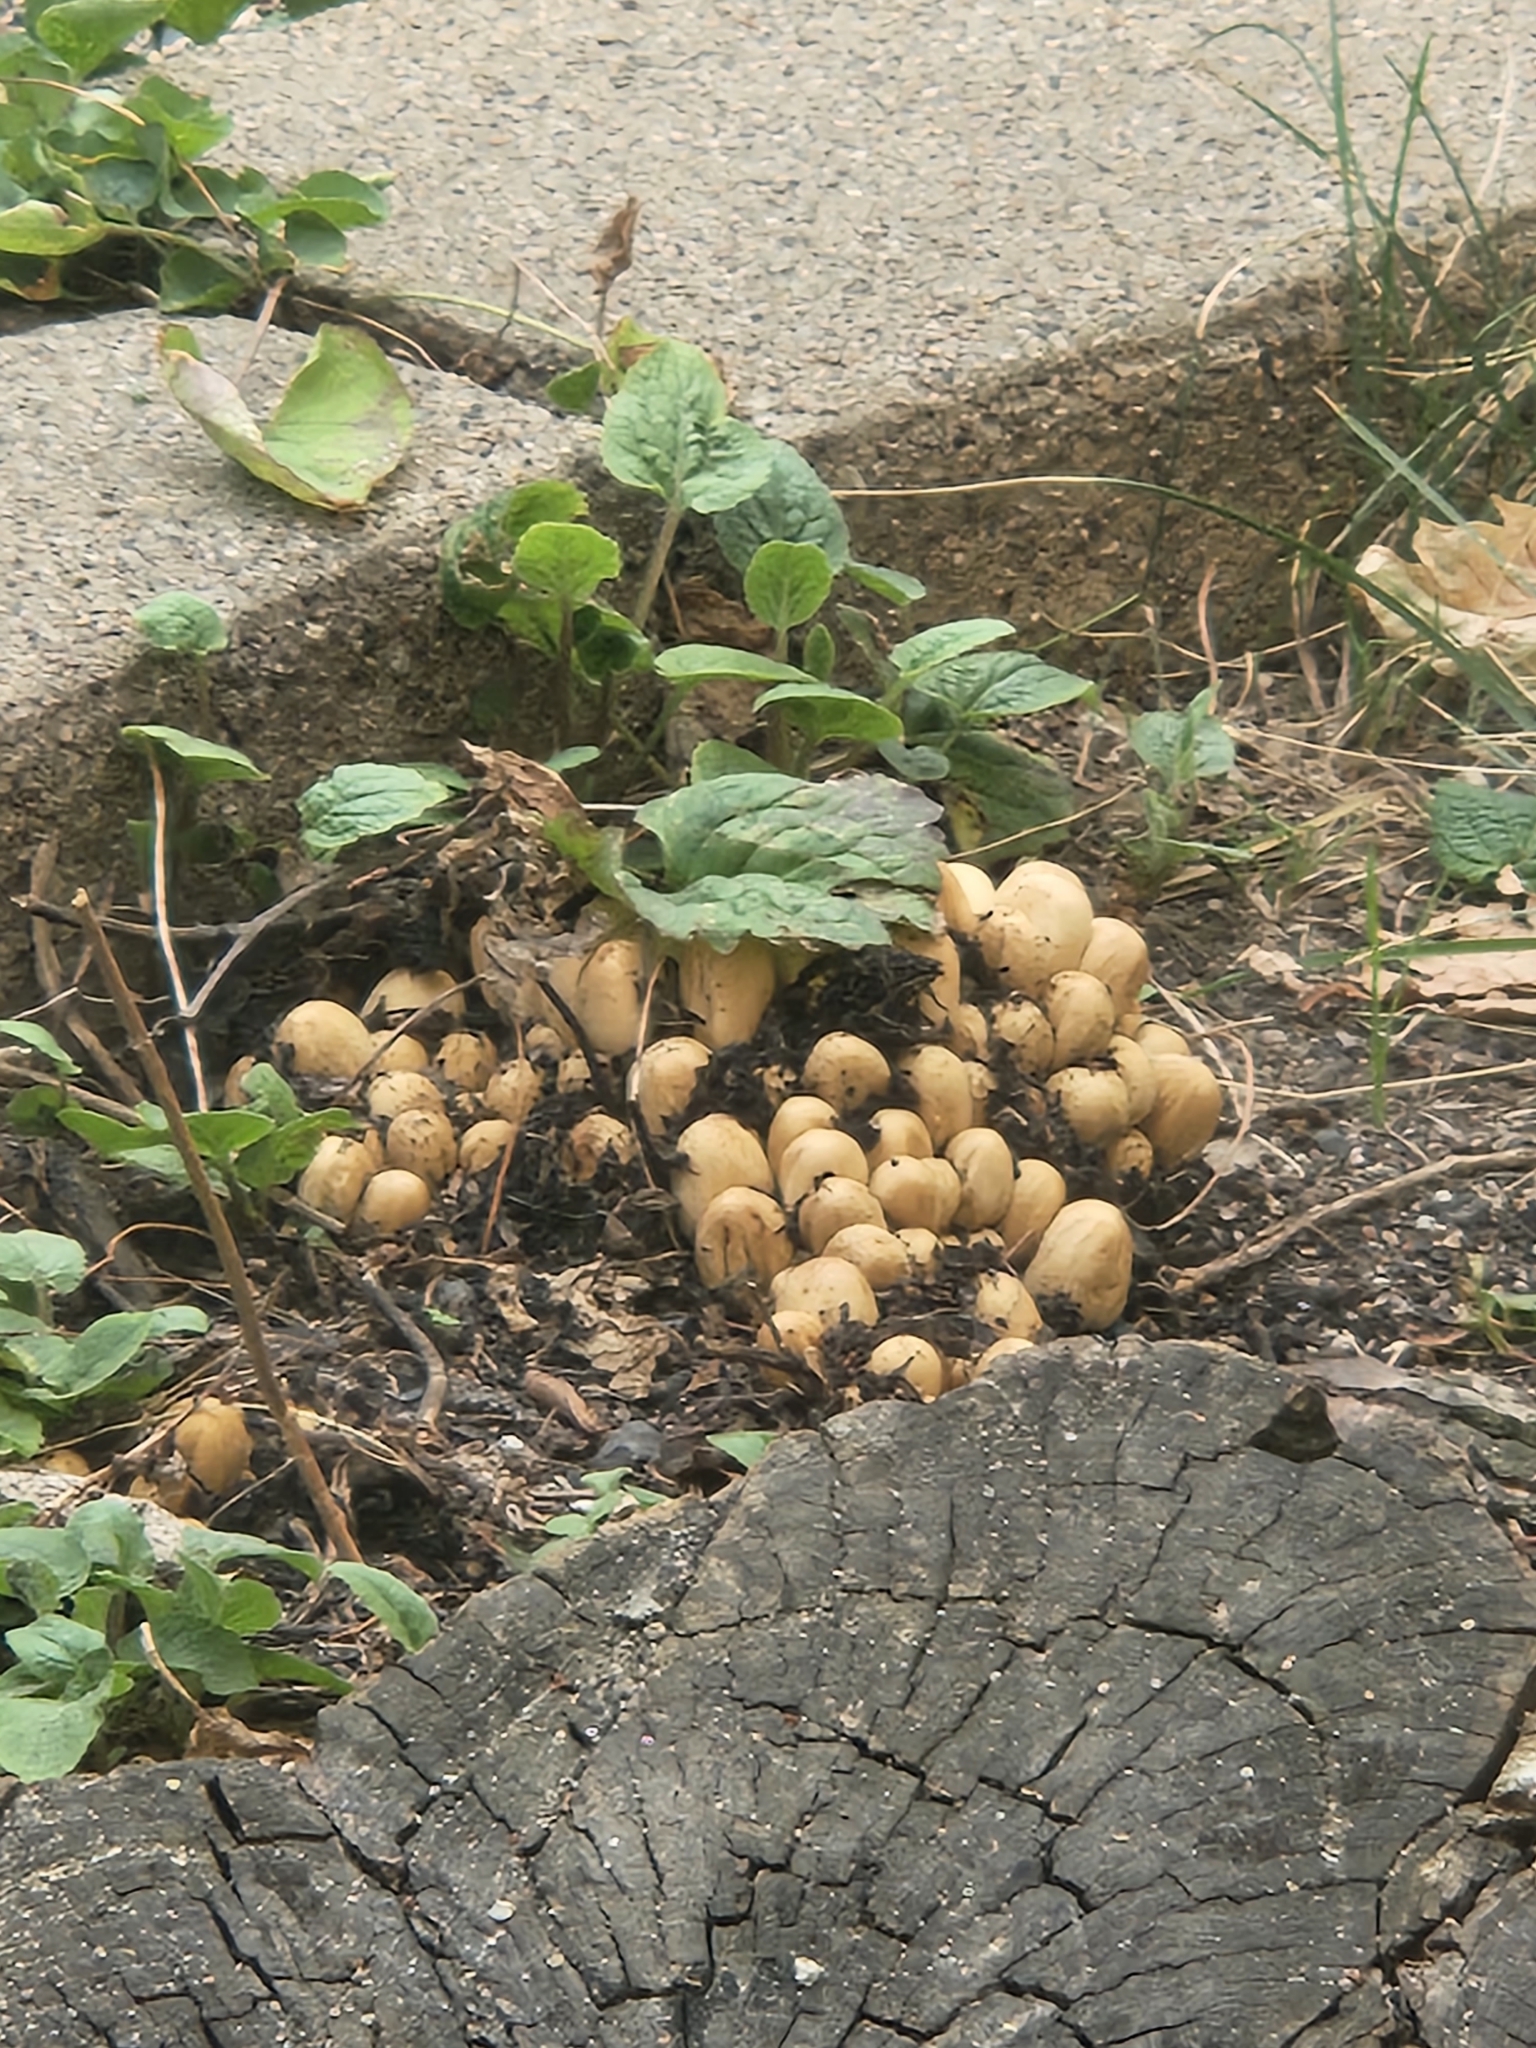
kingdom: Fungi
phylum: Basidiomycota
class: Agaricomycetes
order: Agaricales
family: Psathyrellaceae
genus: Coprinellus
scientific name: Coprinellus micaceus
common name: Glistening ink-cap
